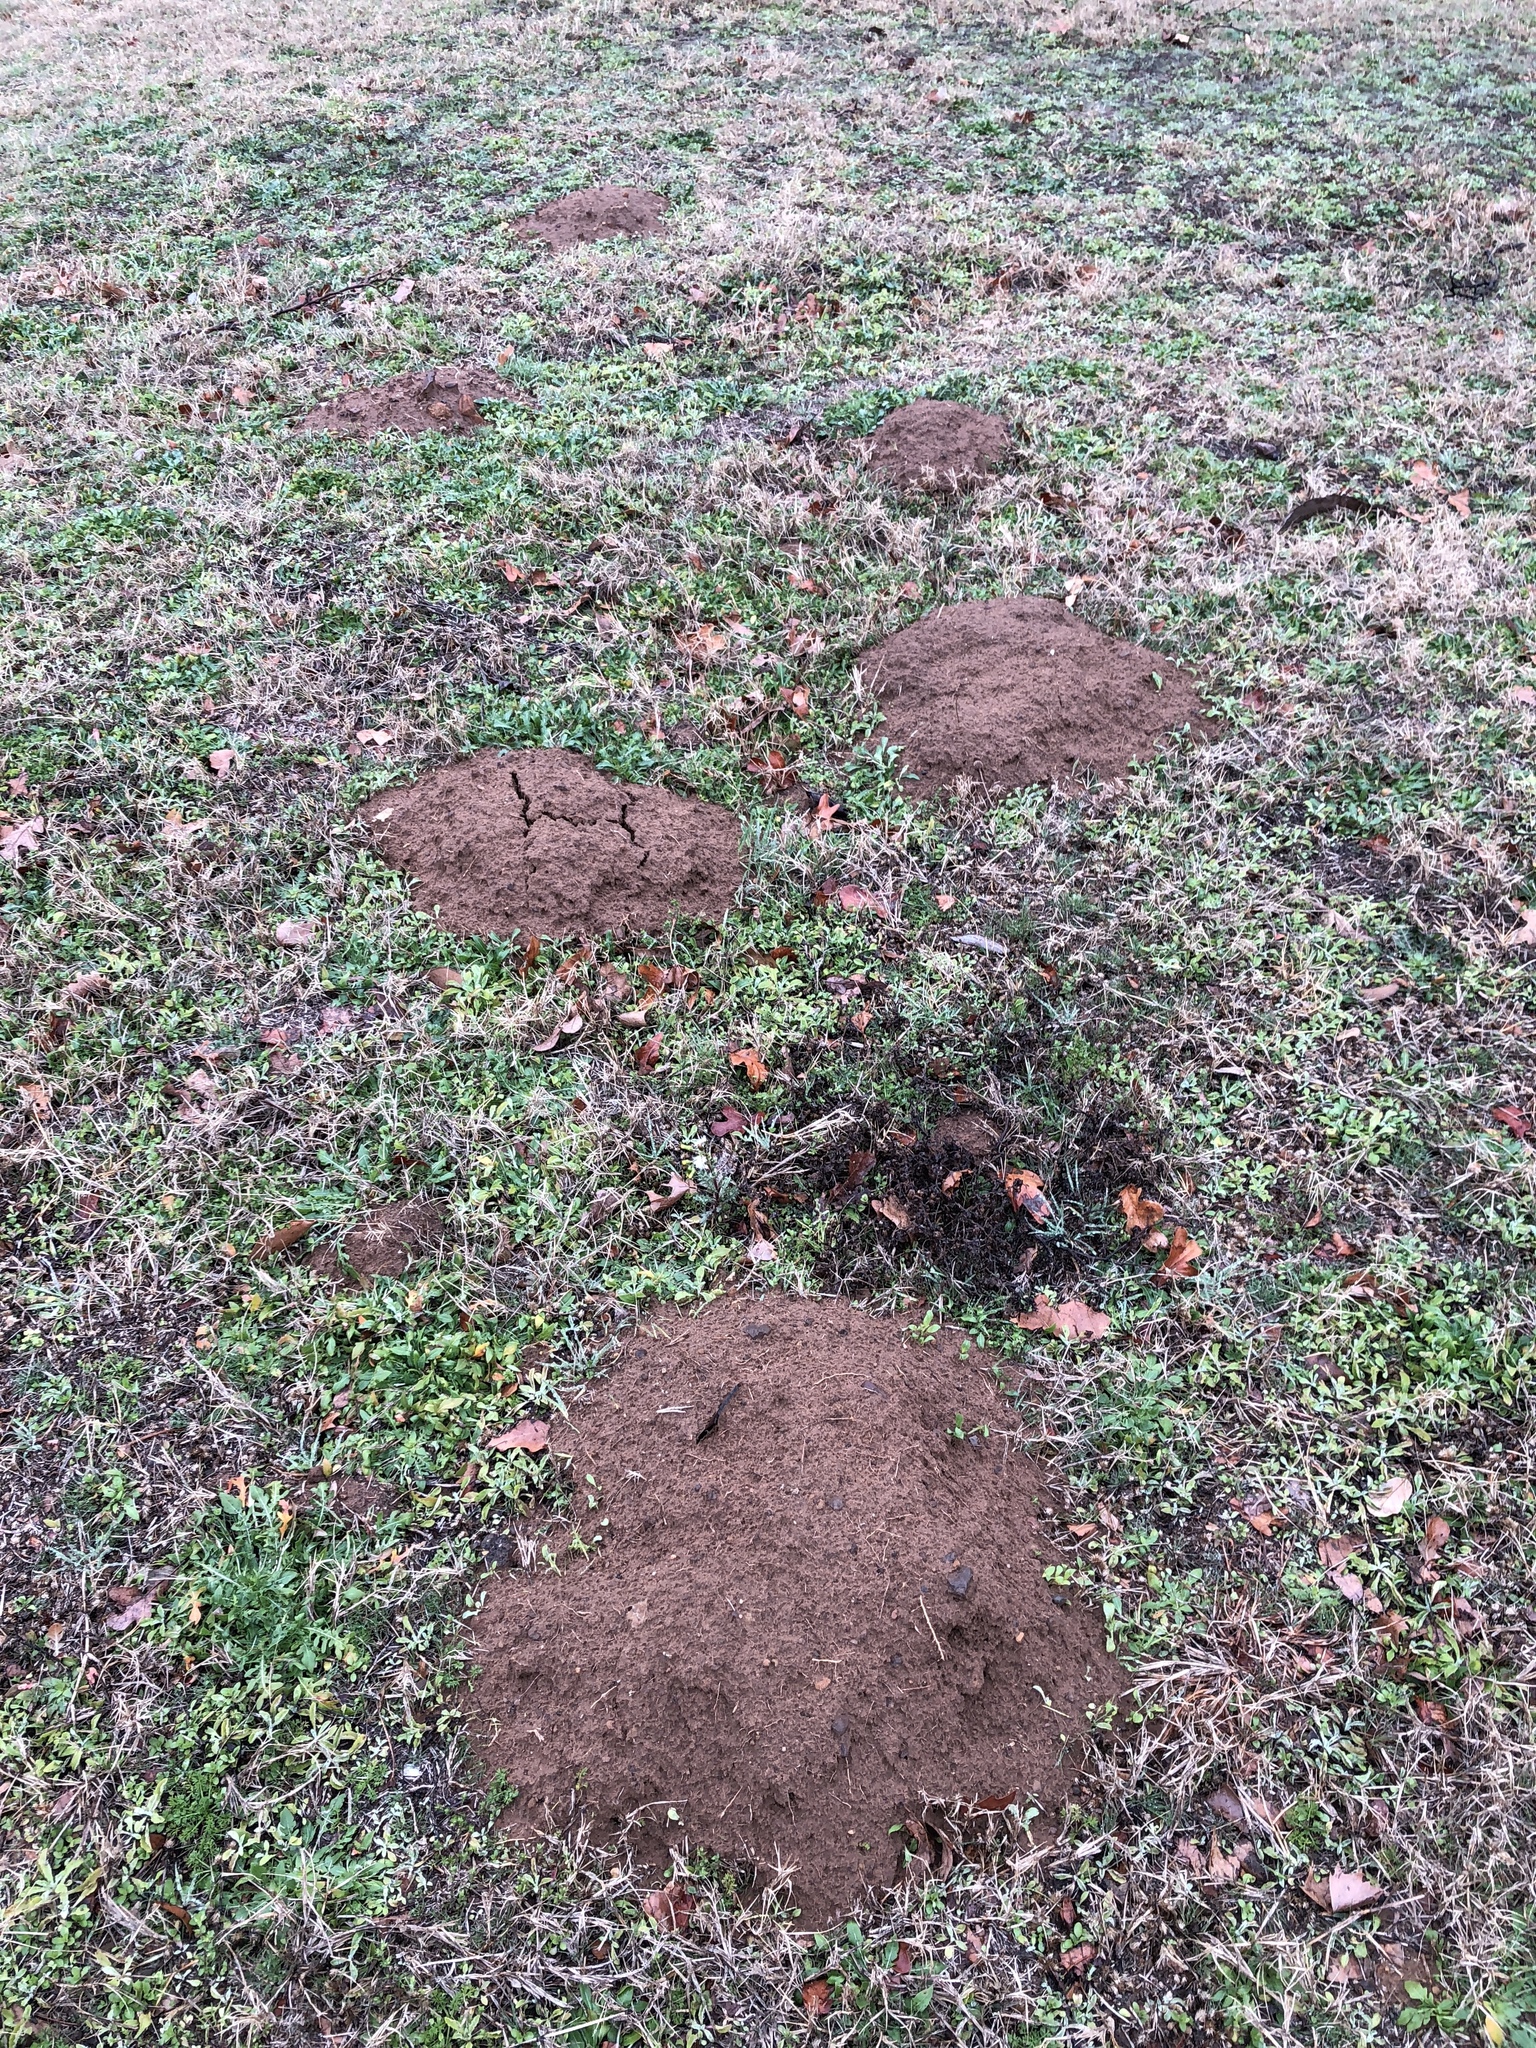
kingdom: Animalia
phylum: Chordata
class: Mammalia
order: Rodentia
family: Geomyidae
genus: Geomys
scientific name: Geomys bursarius
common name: Plains pocket gopher
